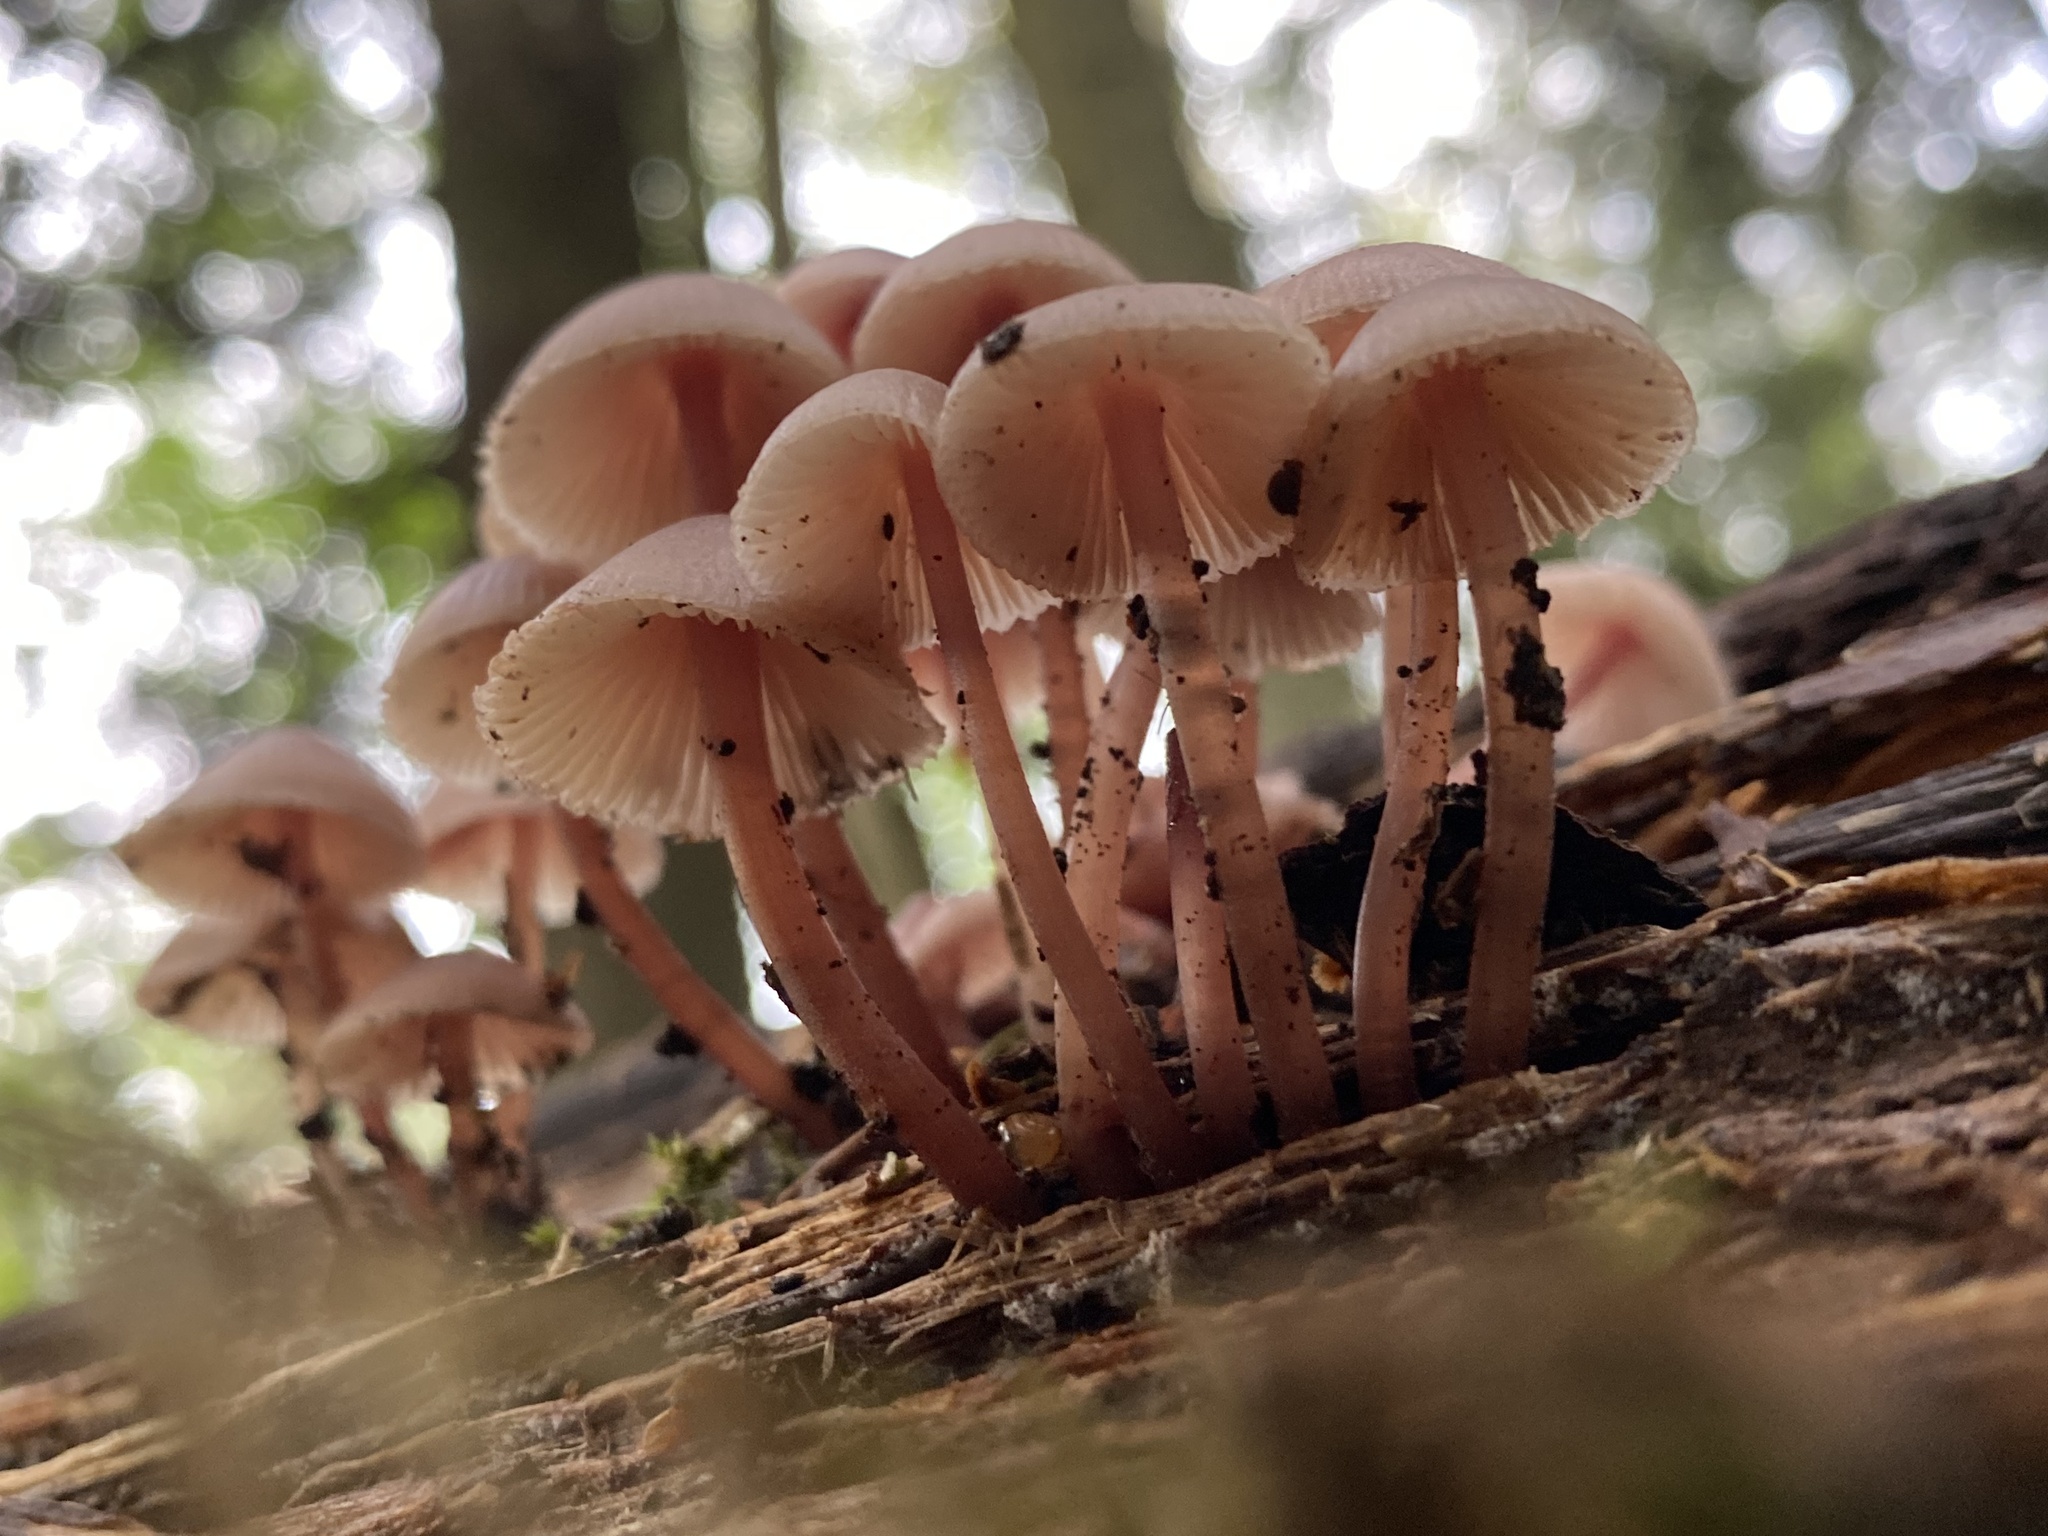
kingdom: Fungi
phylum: Basidiomycota
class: Agaricomycetes
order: Agaricales
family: Mycenaceae
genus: Mycena
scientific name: Mycena haematopus
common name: Burgundydrop bonnet
